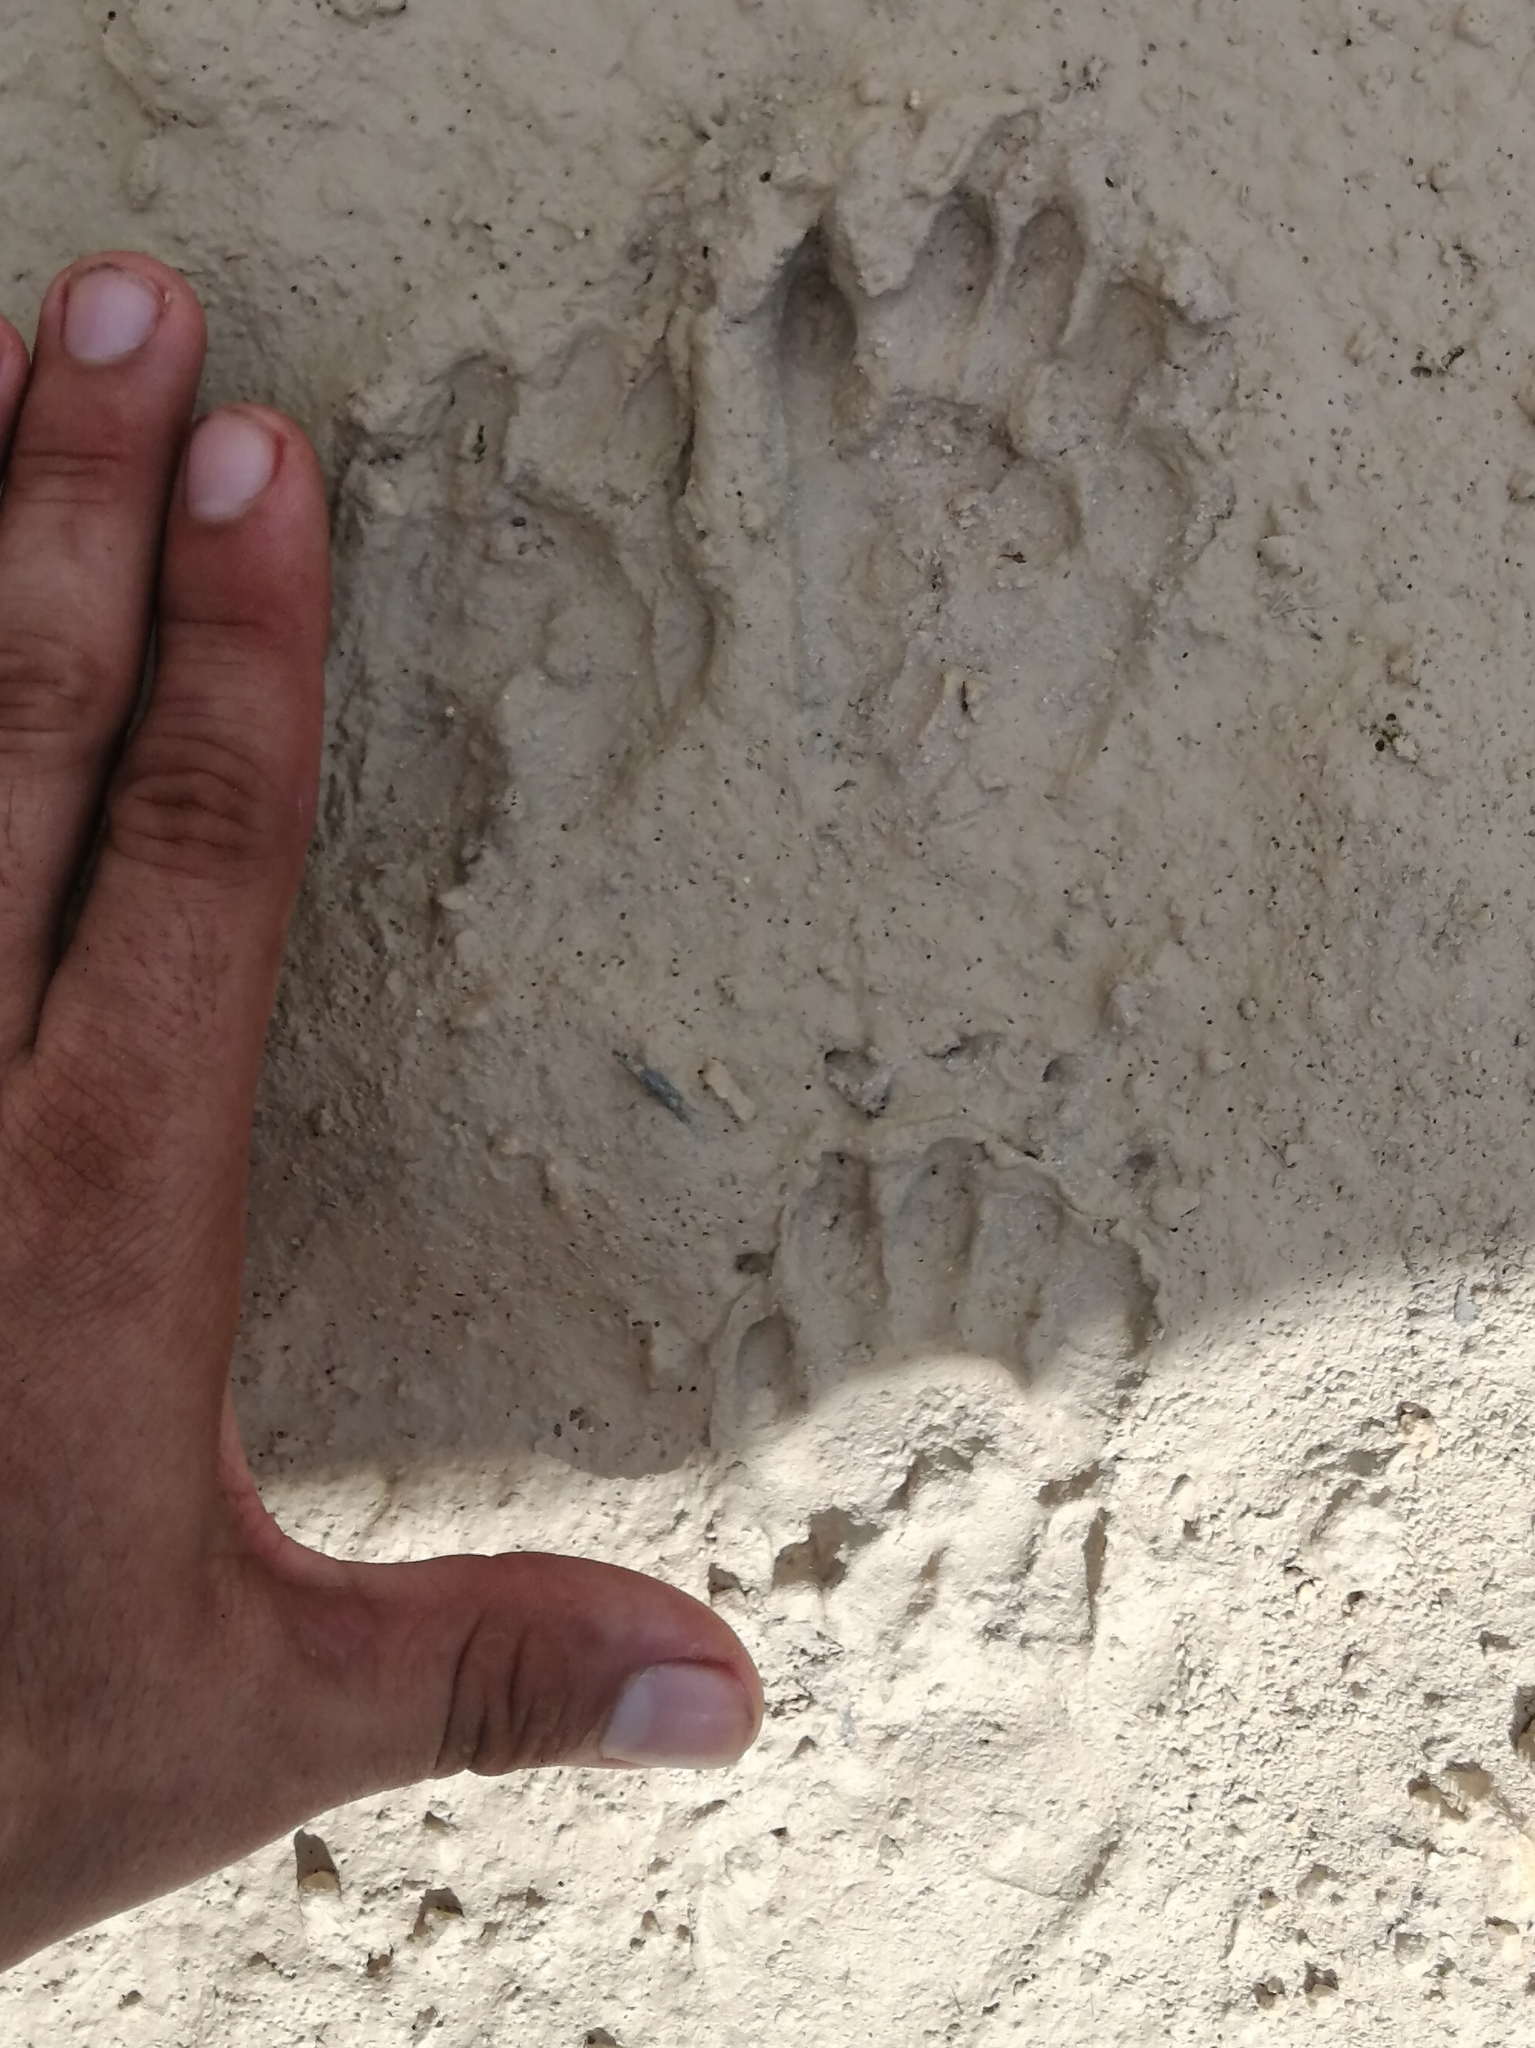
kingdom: Animalia
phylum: Chordata
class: Mammalia
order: Carnivora
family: Procyonidae
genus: Nasua
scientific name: Nasua narica
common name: White-nosed coati
